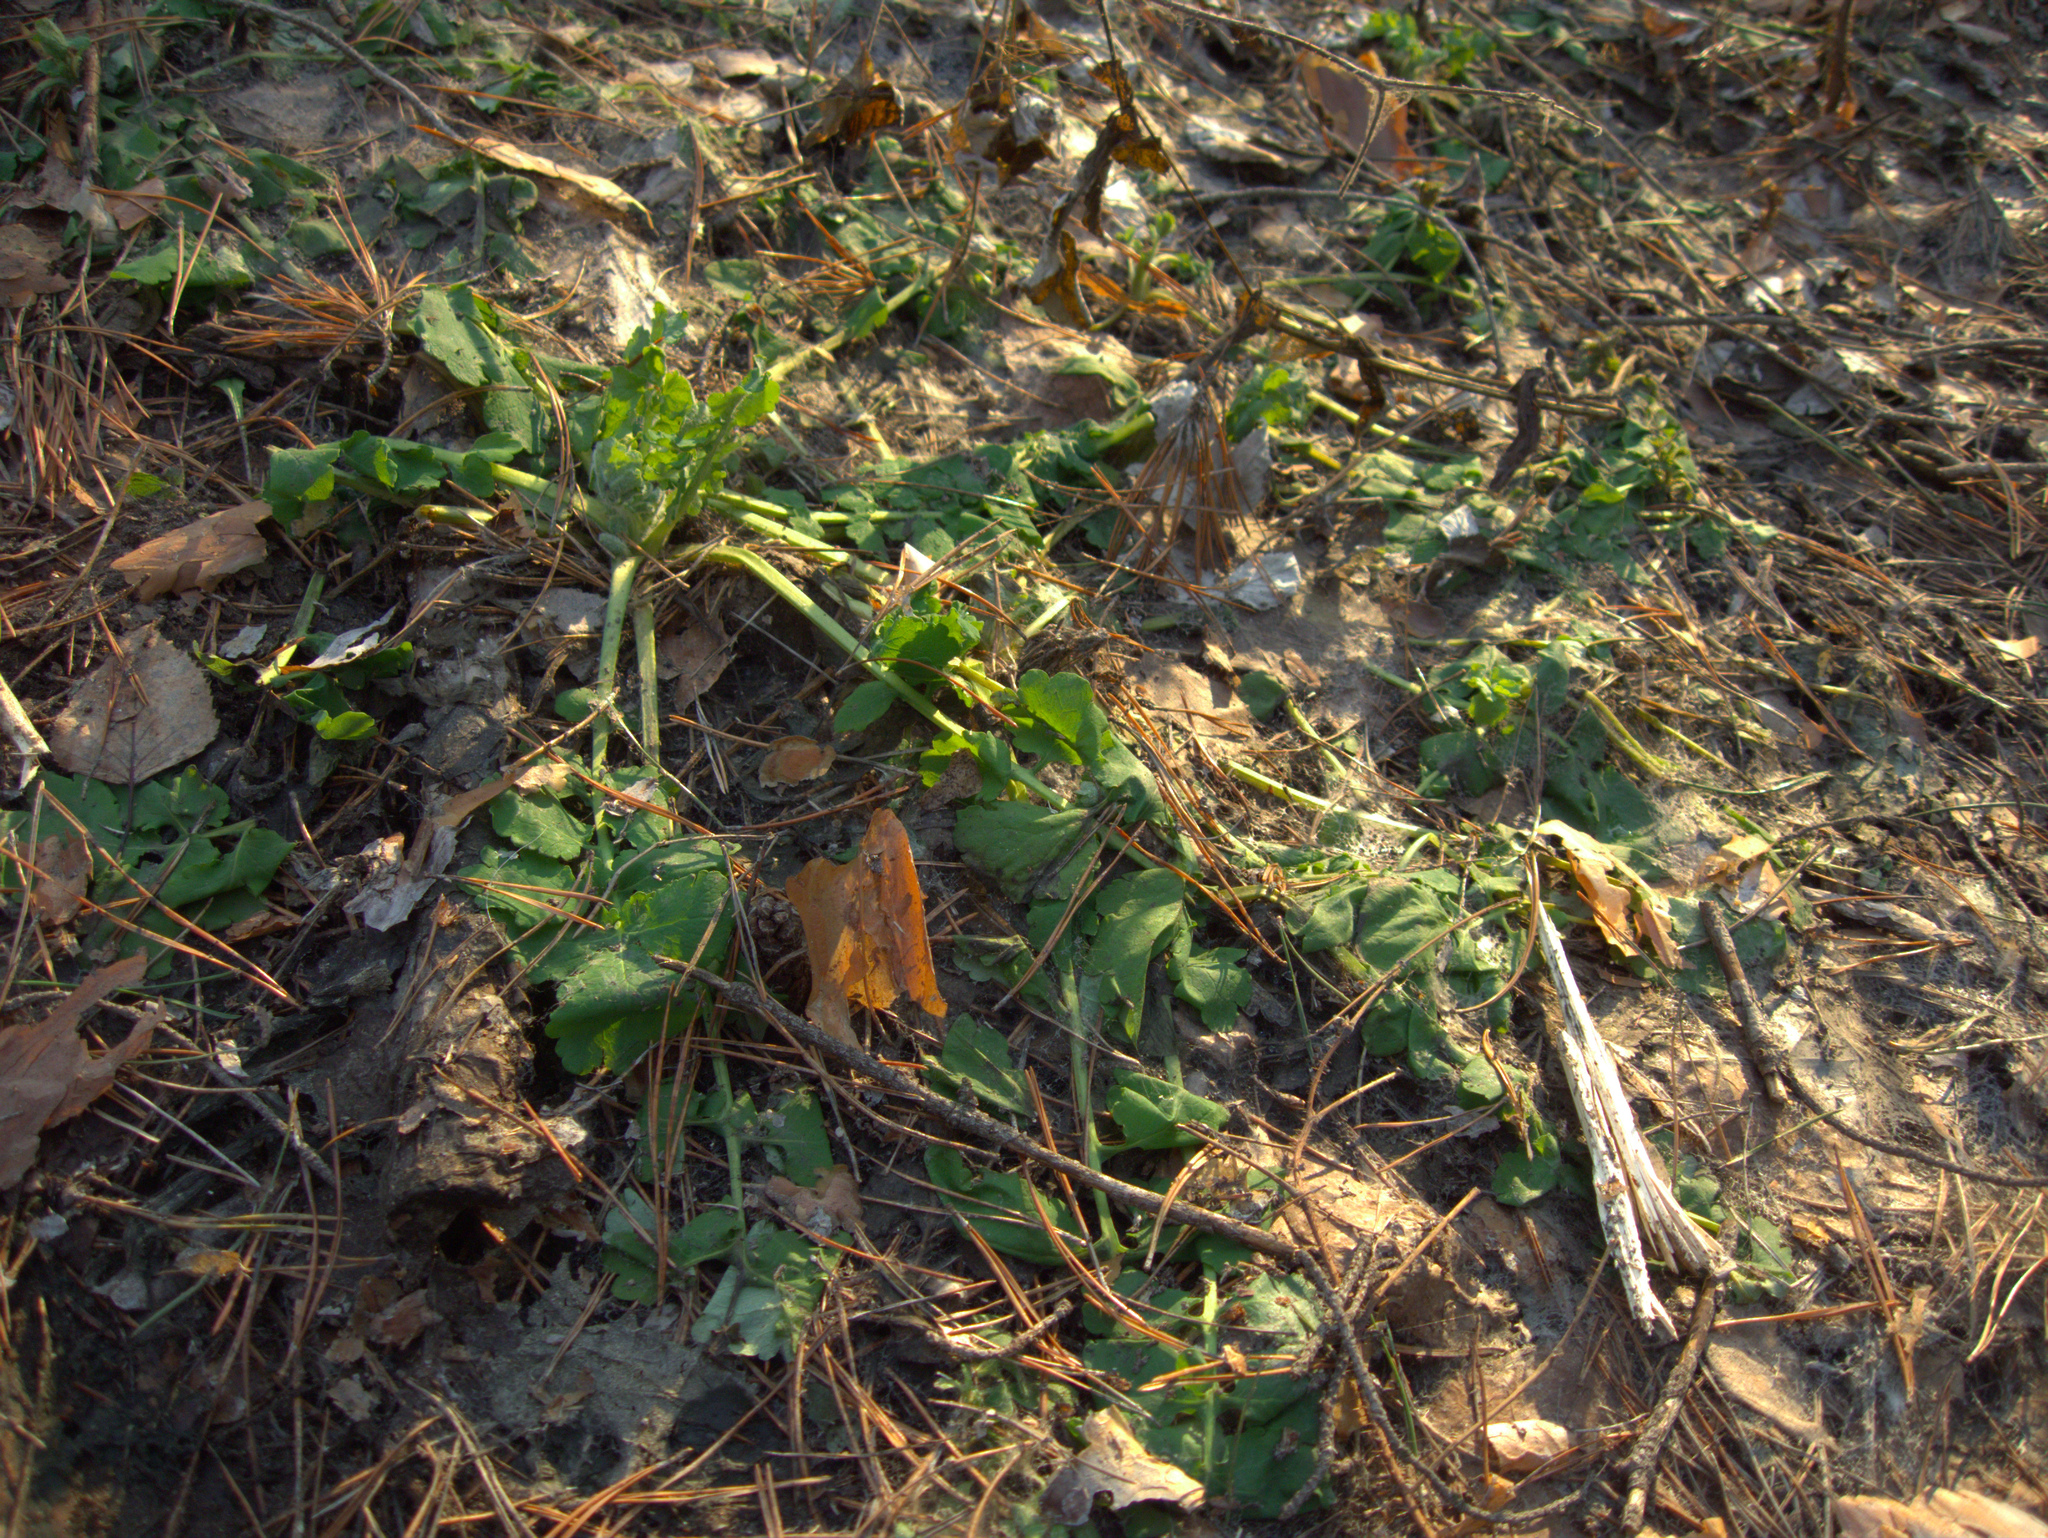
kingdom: Plantae
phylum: Tracheophyta
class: Magnoliopsida
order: Ranunculales
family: Papaveraceae
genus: Chelidonium
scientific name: Chelidonium majus
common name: Greater celandine
